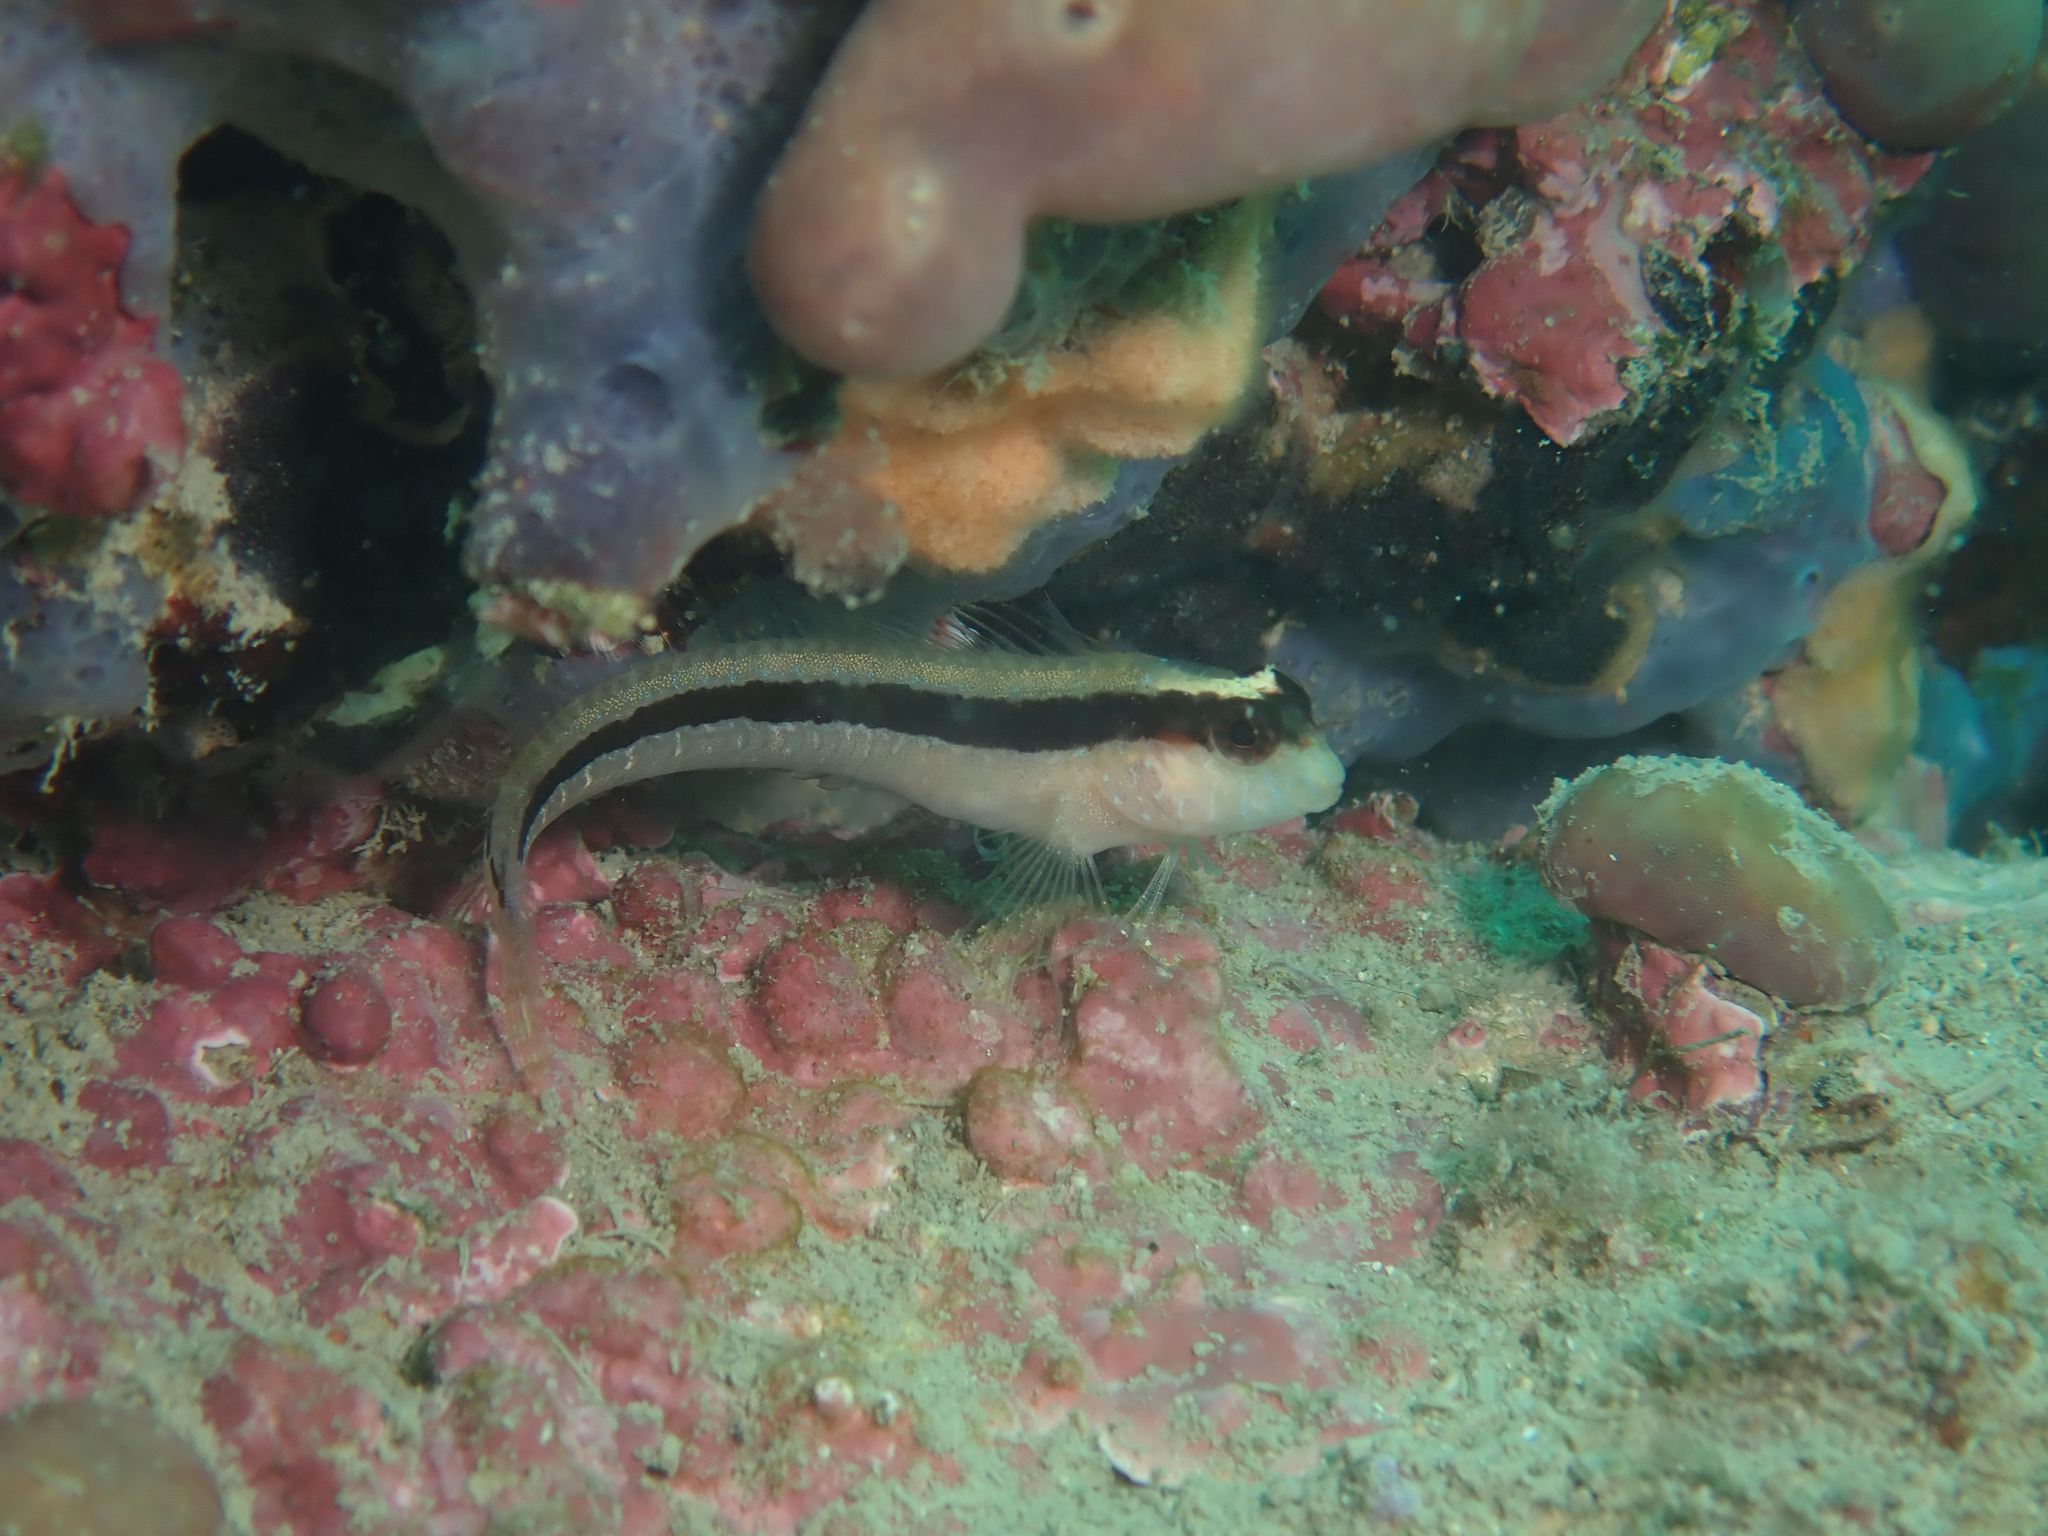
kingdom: Animalia
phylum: Chordata
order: Perciformes
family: Blenniidae
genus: Parablennius
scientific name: Parablennius rouxi
